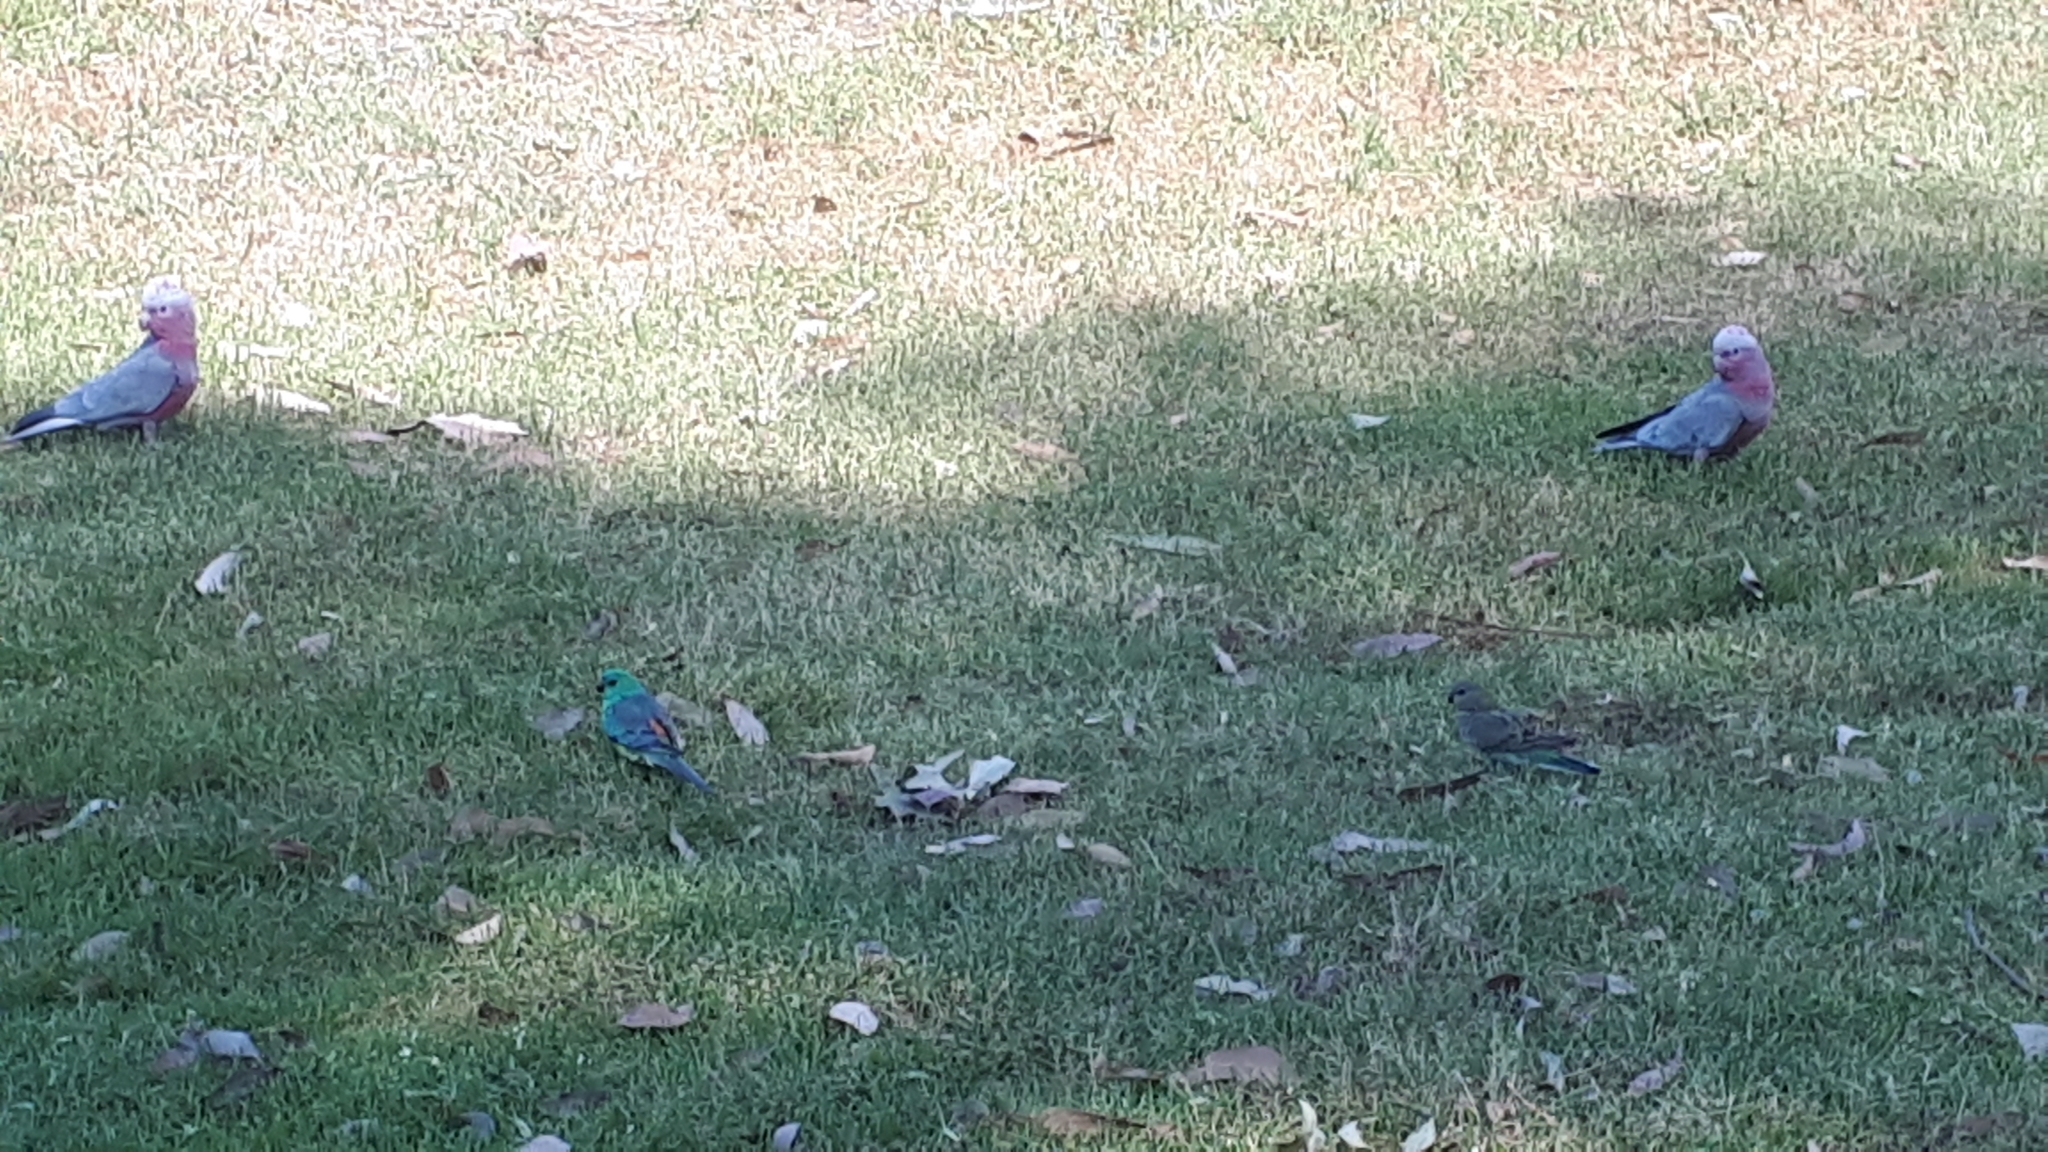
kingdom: Animalia
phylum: Chordata
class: Aves
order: Psittaciformes
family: Psittacidae
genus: Eolophus
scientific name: Eolophus roseicapilla
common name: Galah
